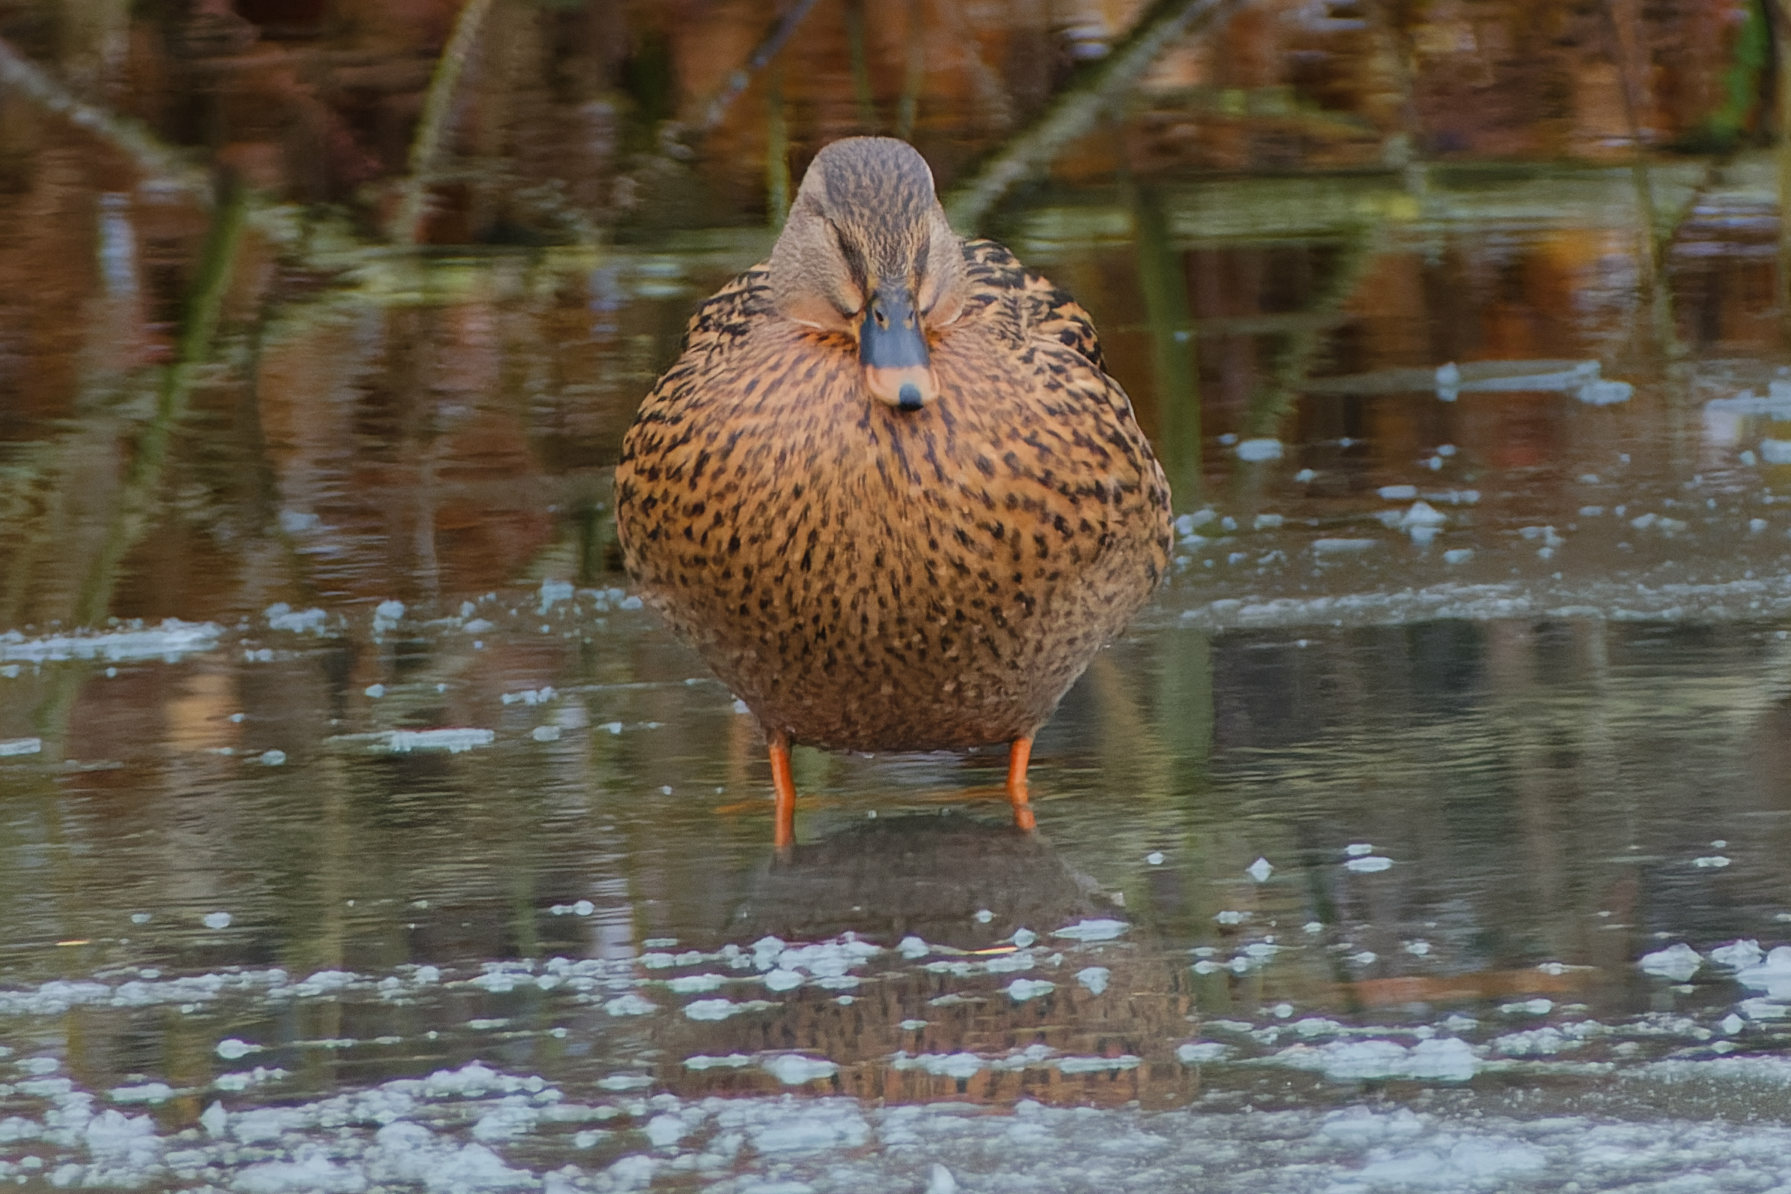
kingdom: Animalia
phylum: Chordata
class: Aves
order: Anseriformes
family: Anatidae
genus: Anas
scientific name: Anas platyrhynchos
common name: Mallard
